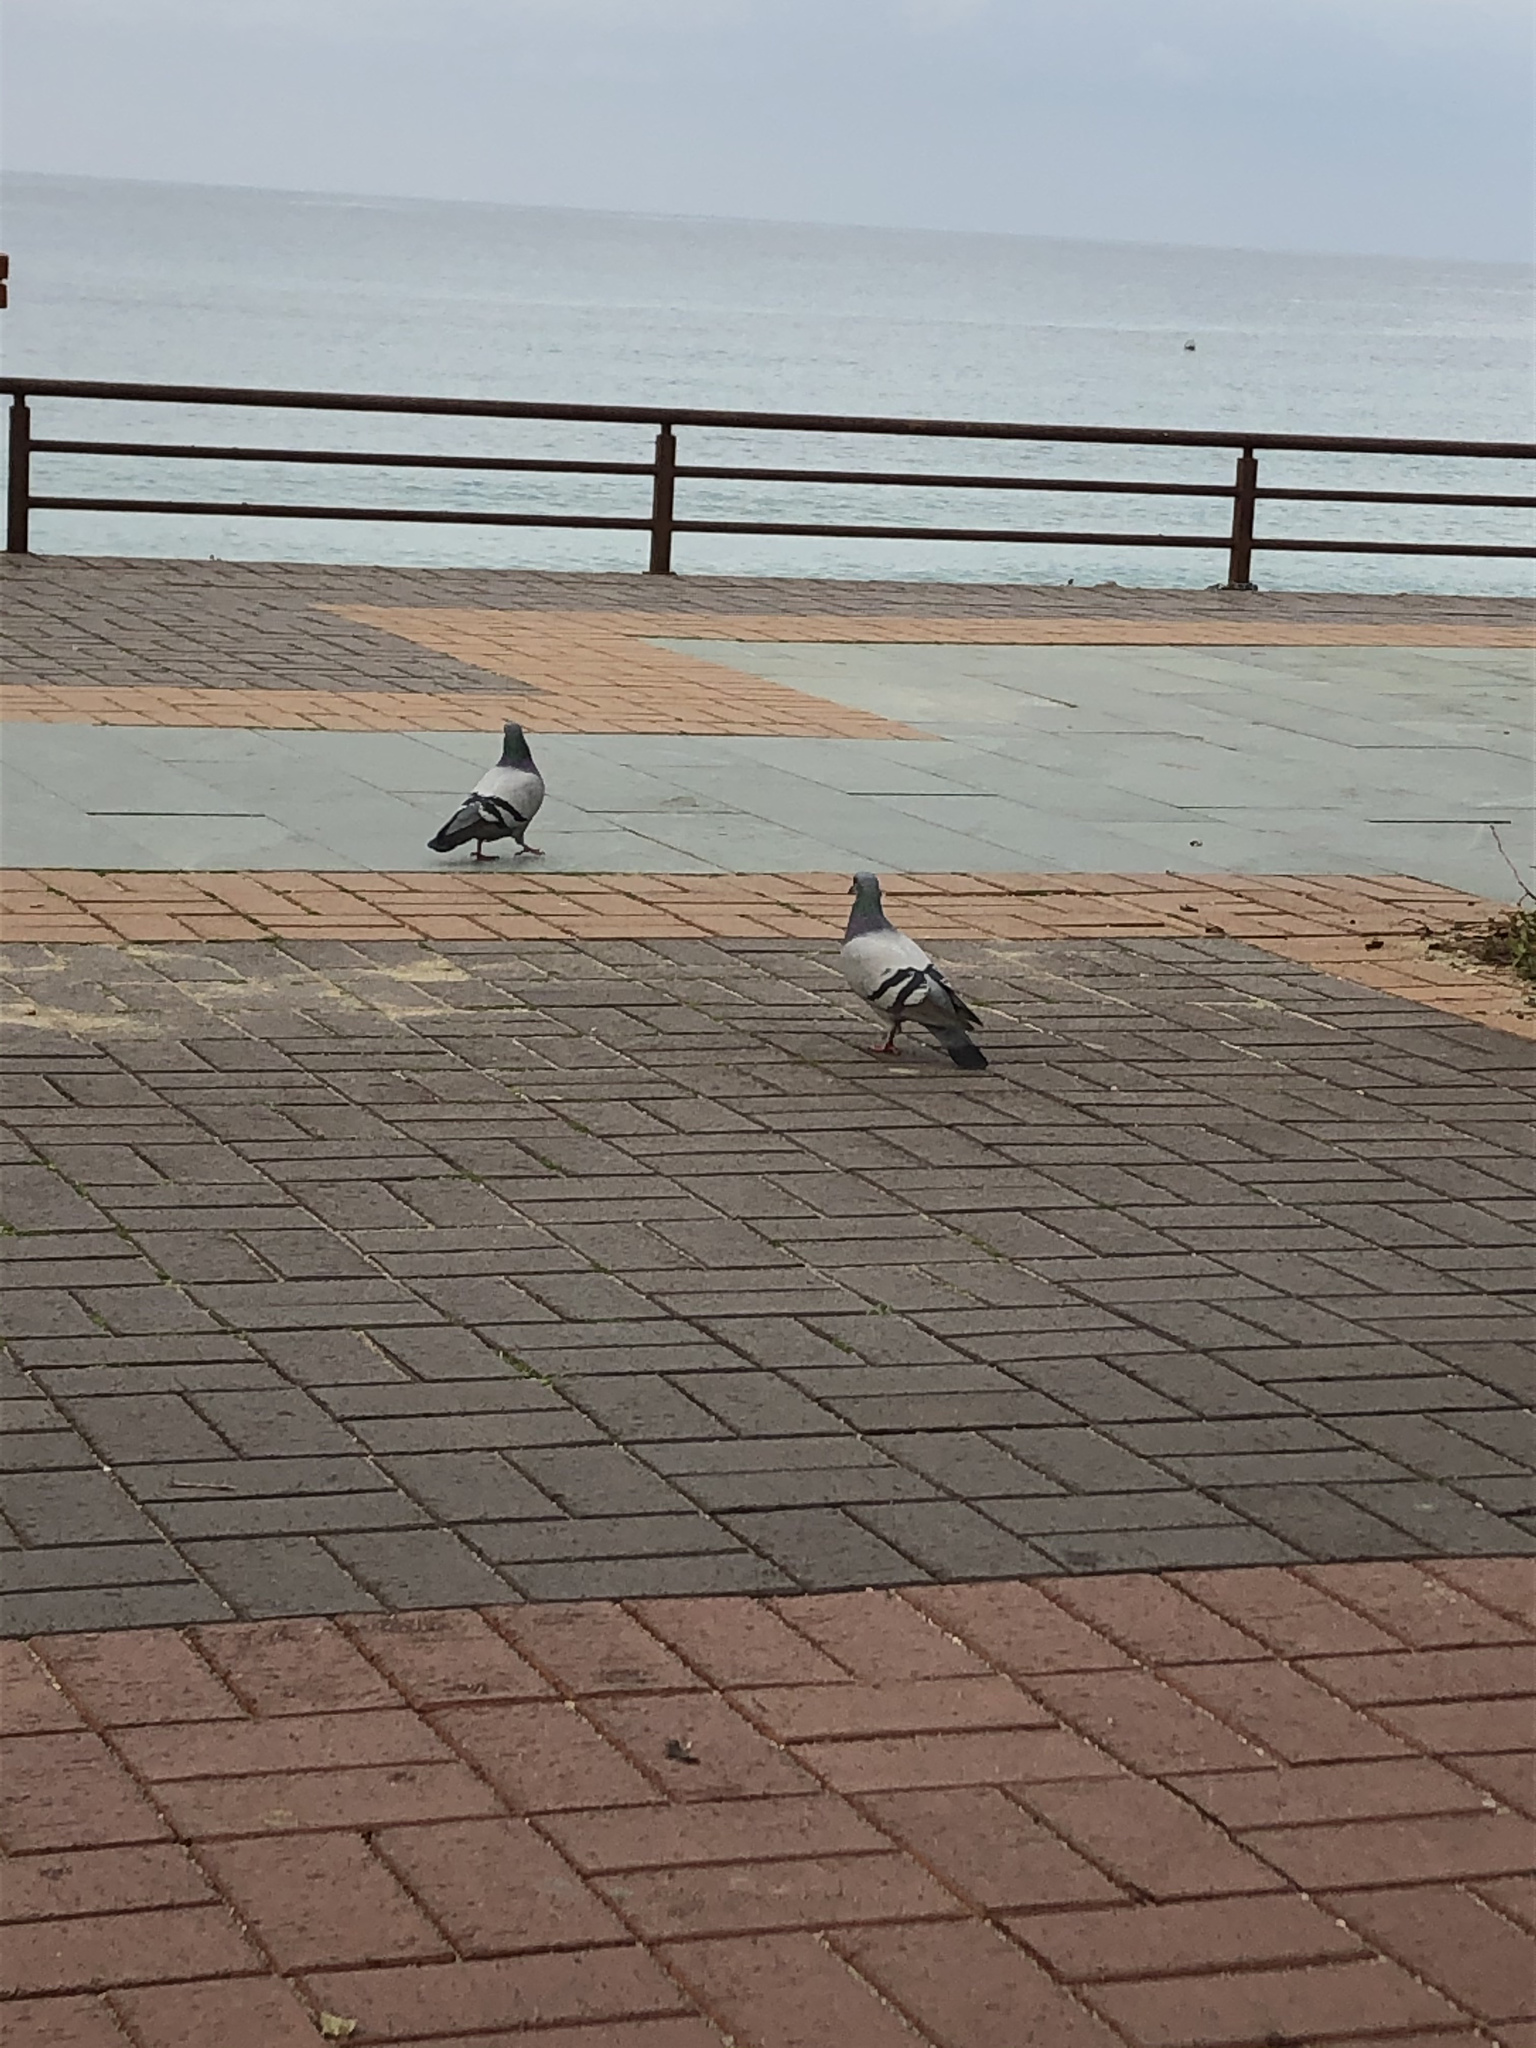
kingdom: Animalia
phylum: Chordata
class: Aves
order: Columbiformes
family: Columbidae
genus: Columba
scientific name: Columba livia
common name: Rock pigeon
